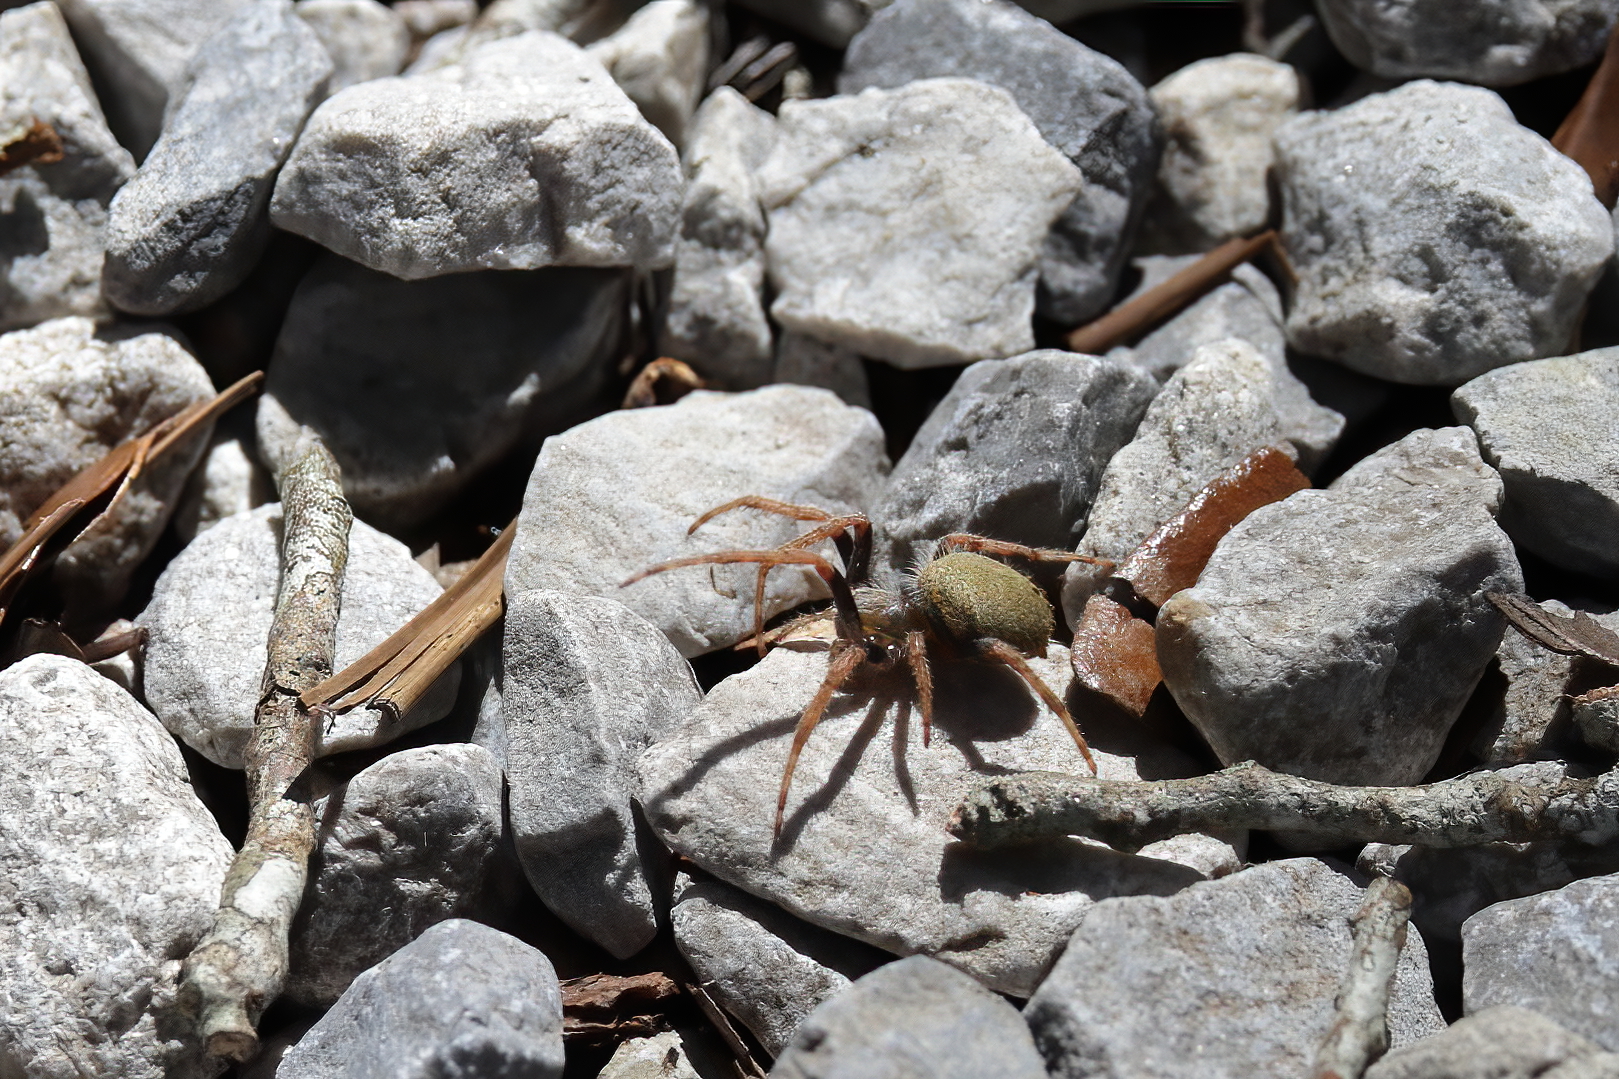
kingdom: Animalia
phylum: Arthropoda
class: Arachnida
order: Araneae
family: Araneidae
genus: Eriophora
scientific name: Eriophora ravilla
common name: Orb weavers
